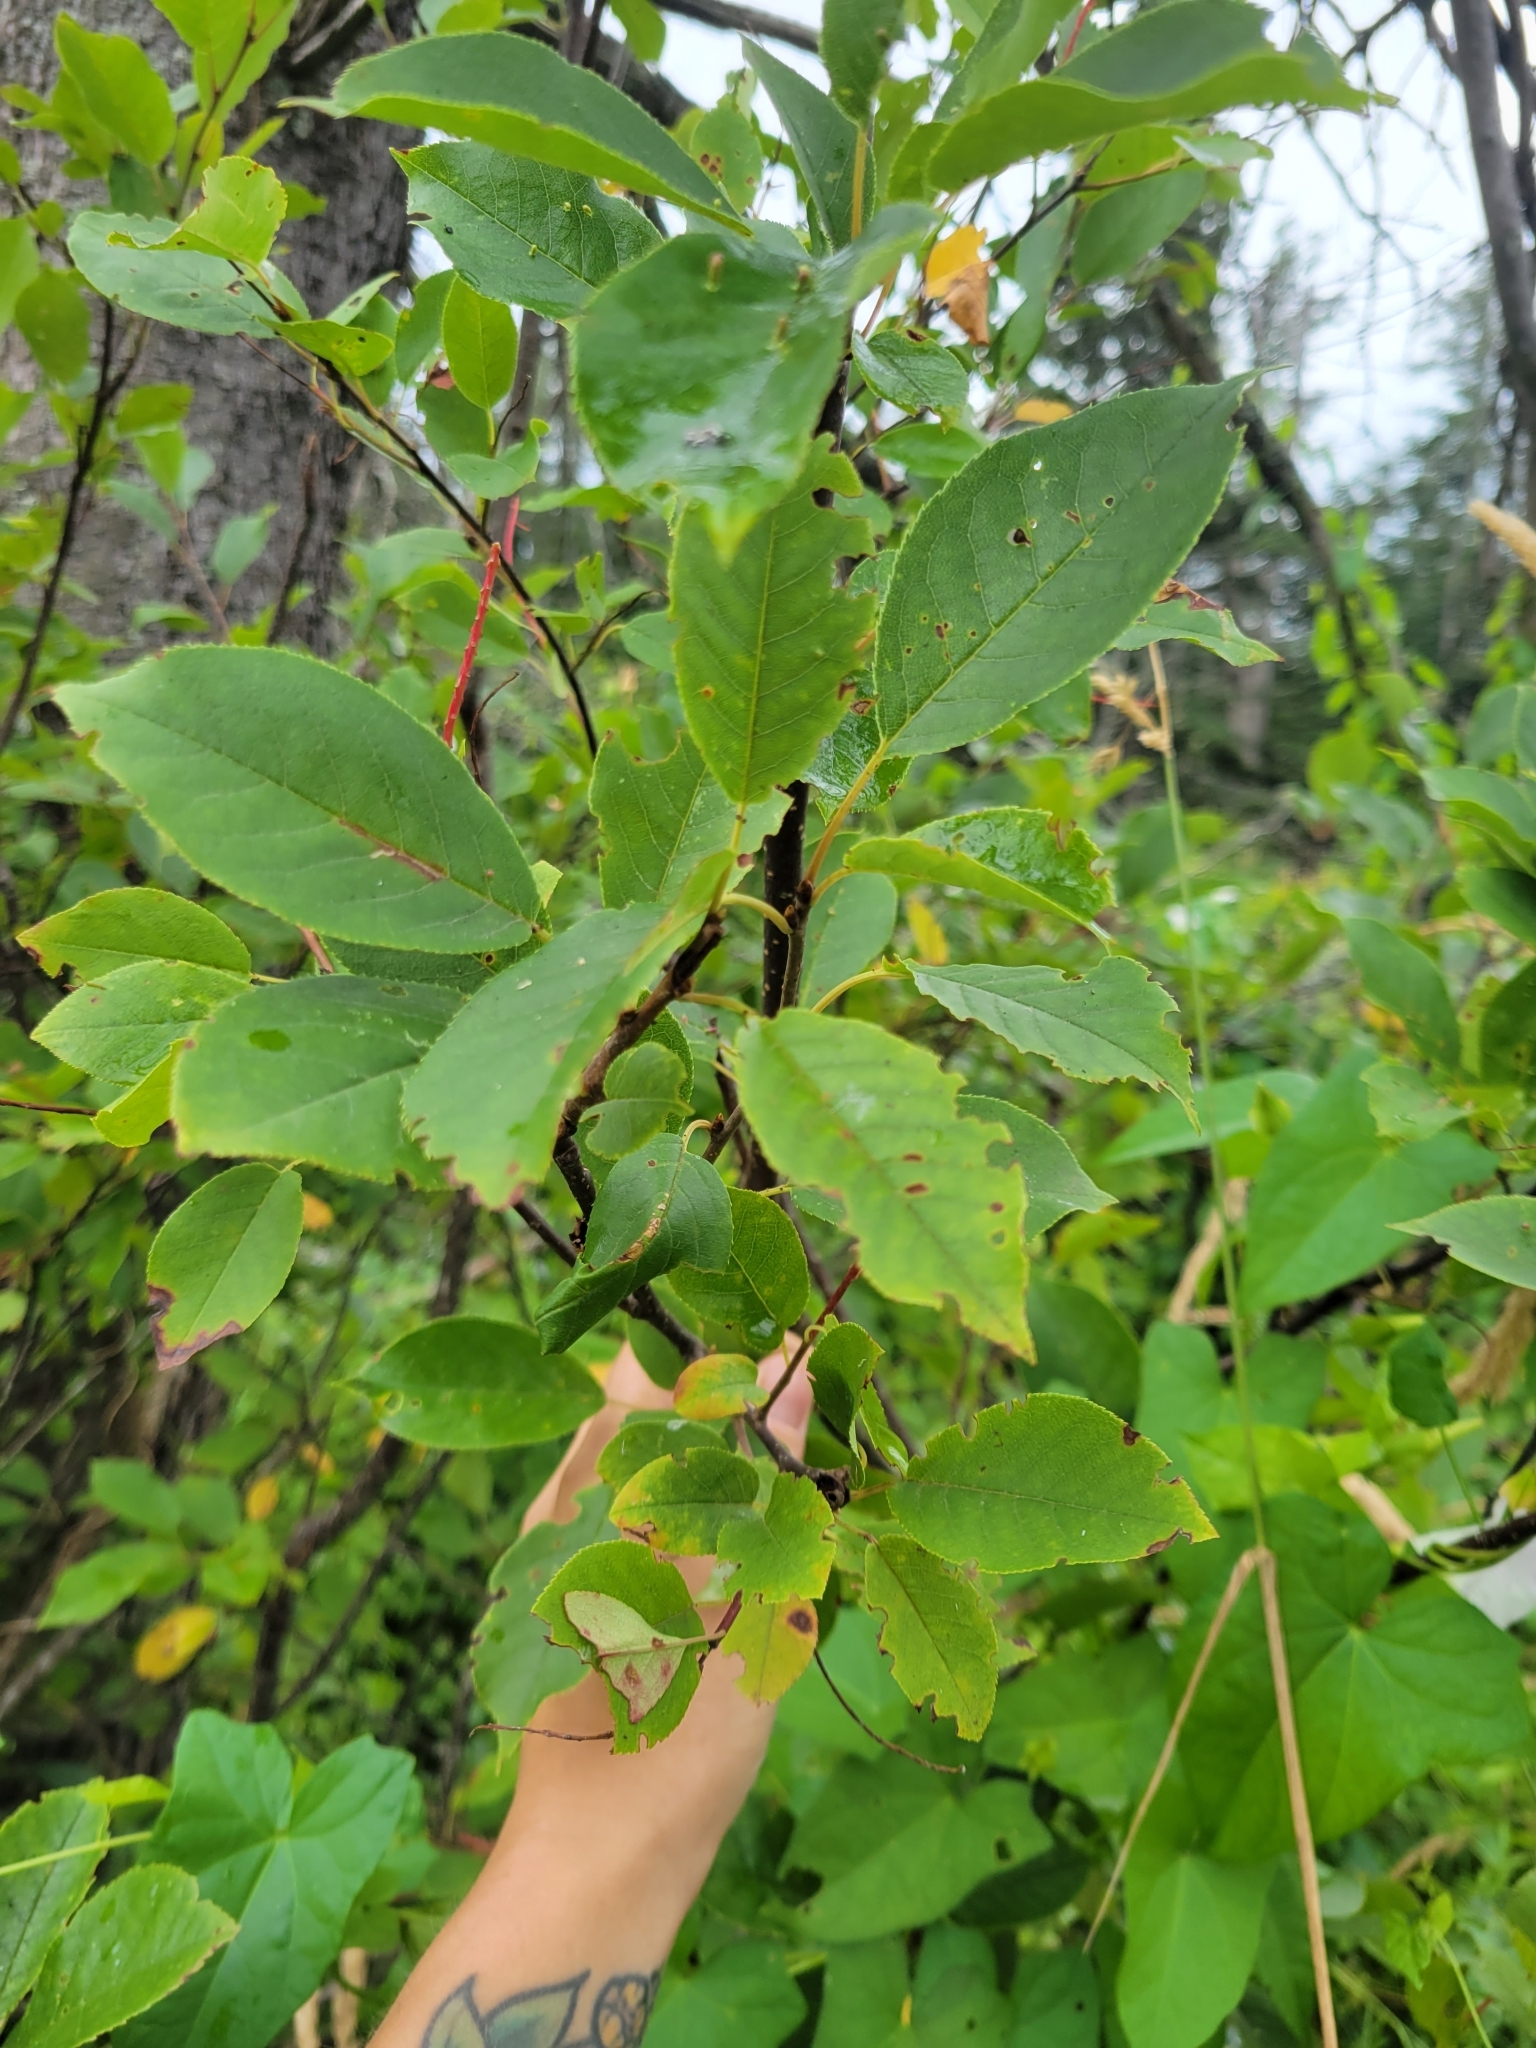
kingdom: Plantae
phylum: Tracheophyta
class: Magnoliopsida
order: Rosales
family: Rosaceae
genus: Prunus
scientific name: Prunus virginiana
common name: Chokecherry
